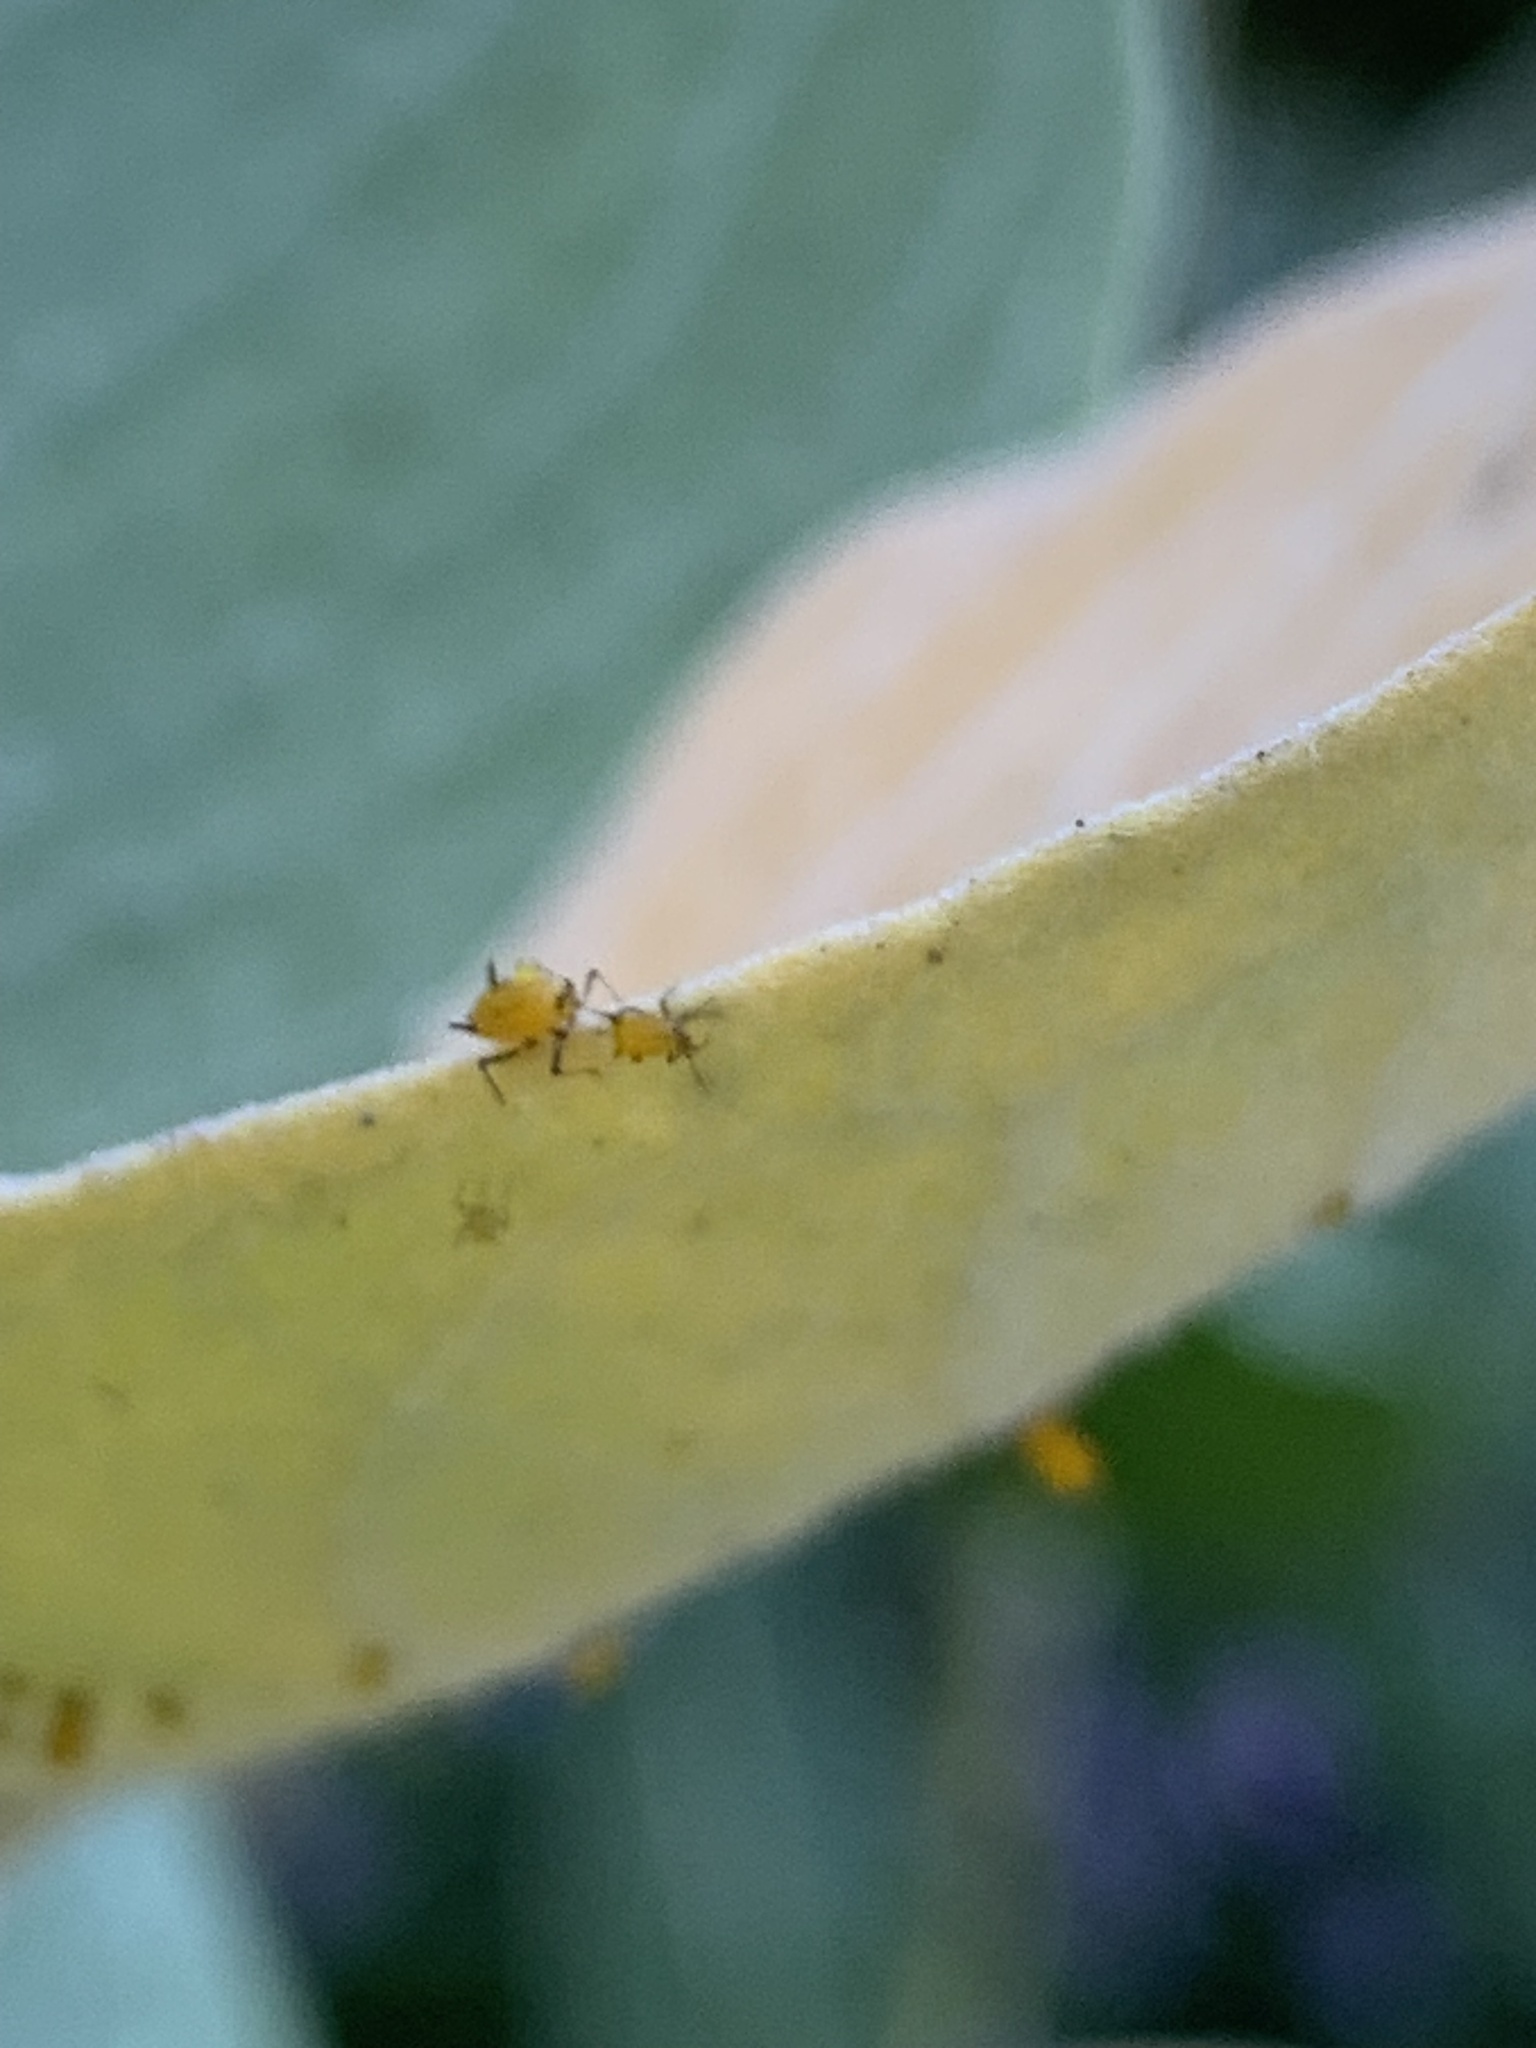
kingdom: Animalia
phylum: Arthropoda
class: Insecta
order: Hemiptera
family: Aphididae
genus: Aphis
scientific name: Aphis nerii
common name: Oleander aphid
